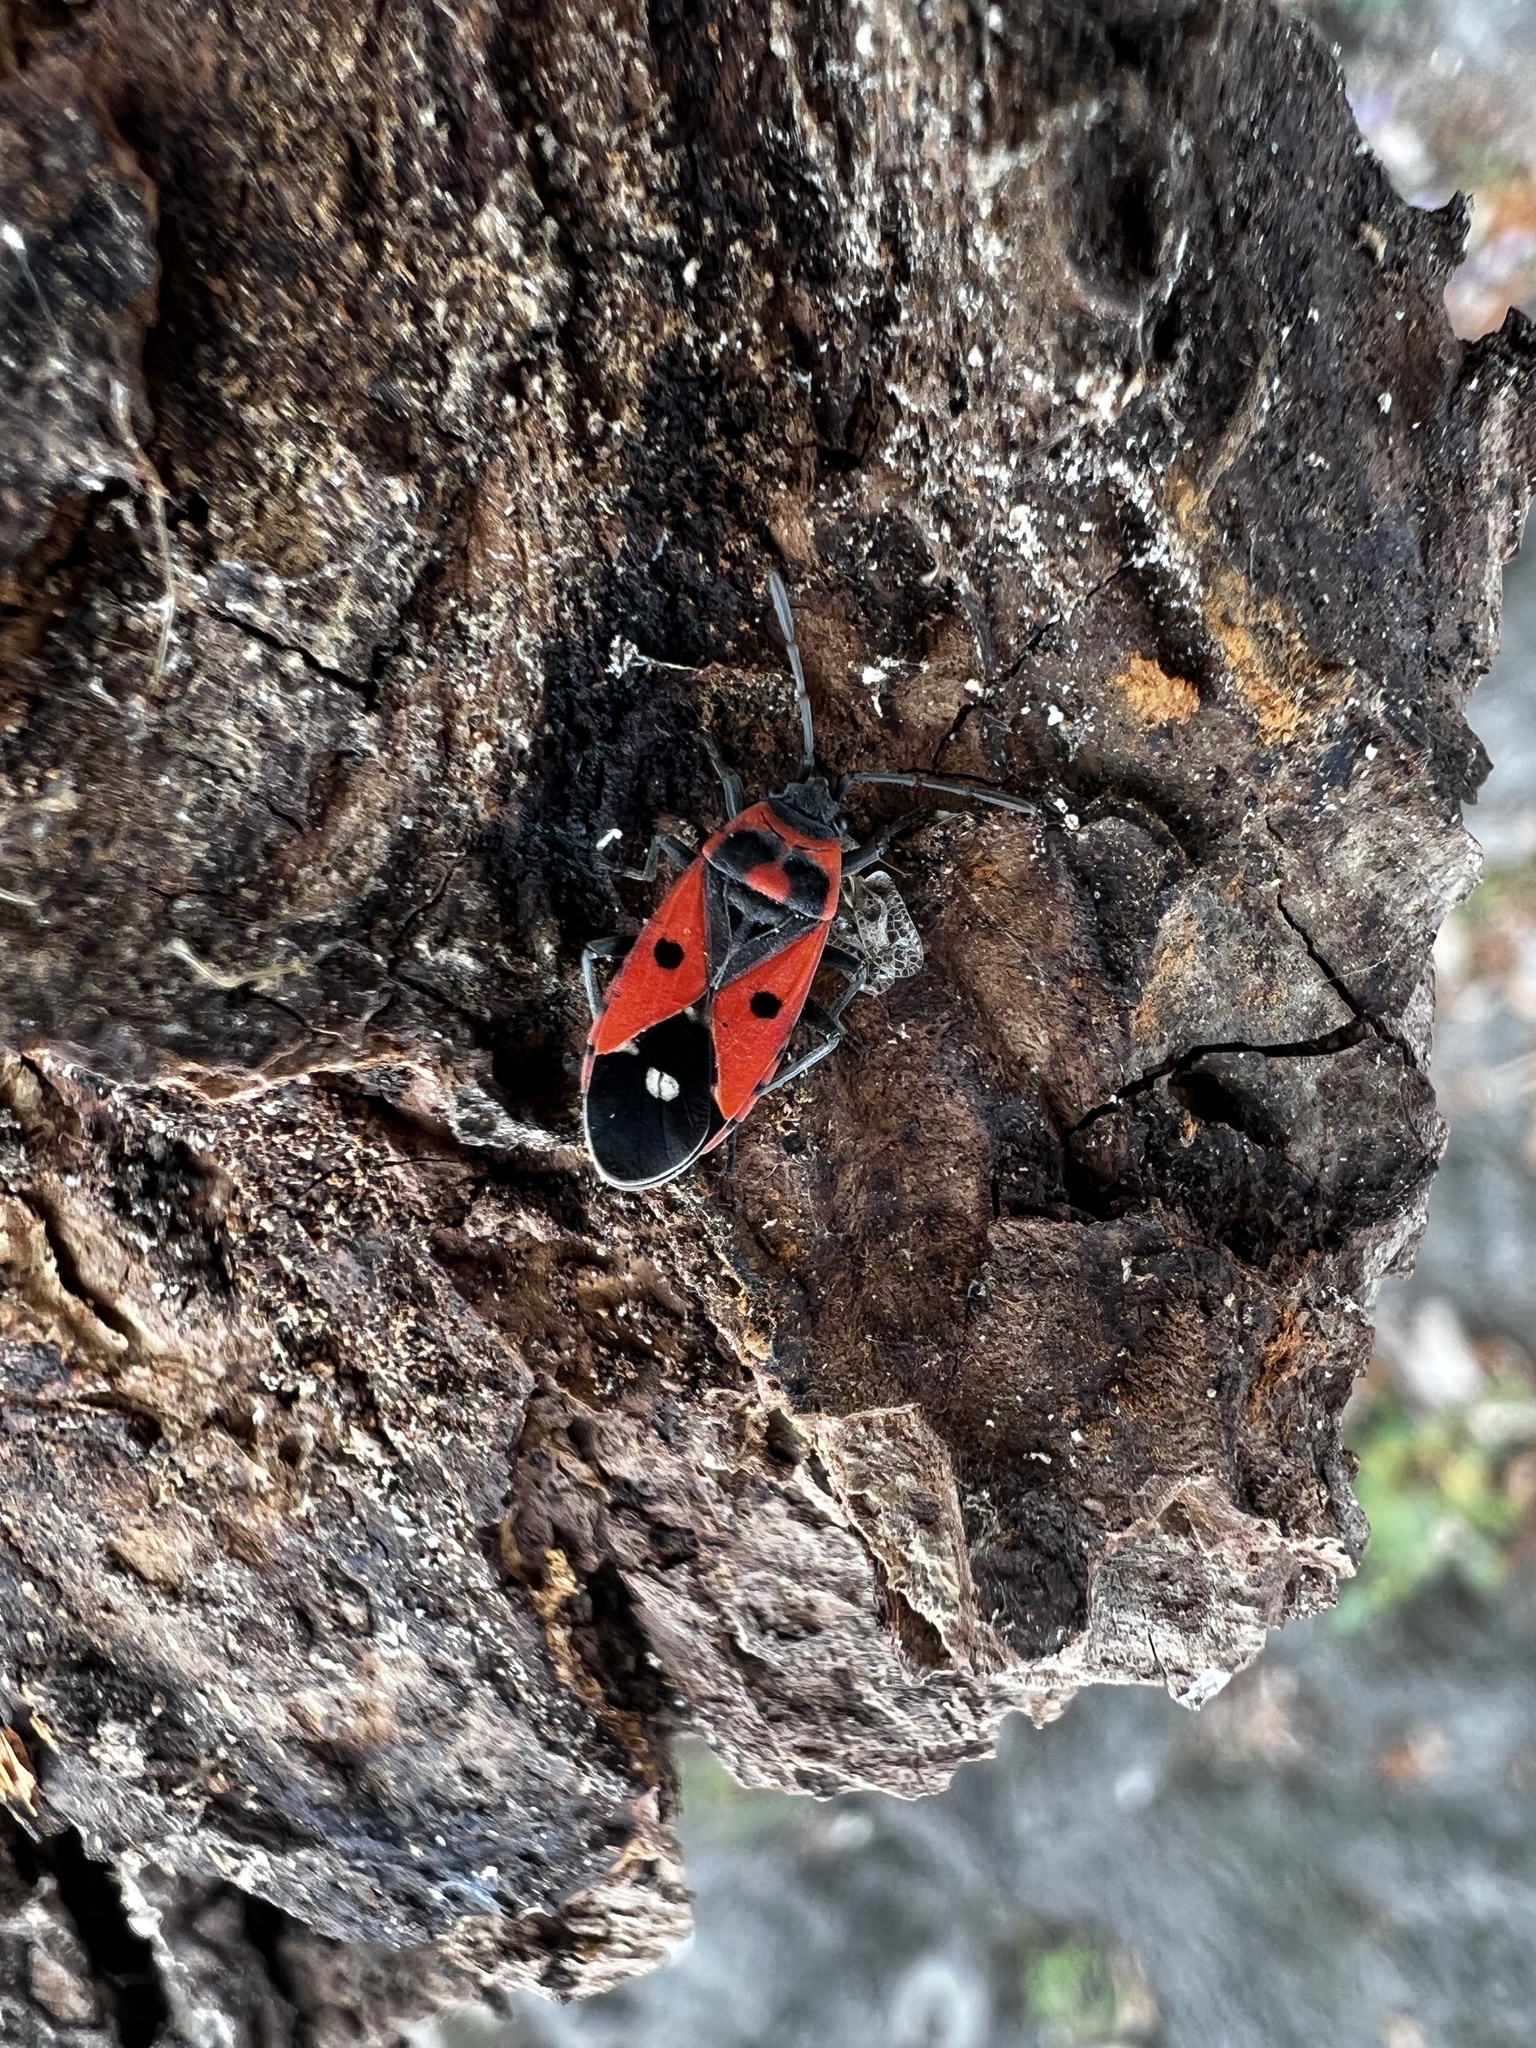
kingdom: Animalia
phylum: Arthropoda
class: Insecta
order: Hemiptera
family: Lygaeidae
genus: Melanocoryphus
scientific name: Melanocoryphus albomaculatus
